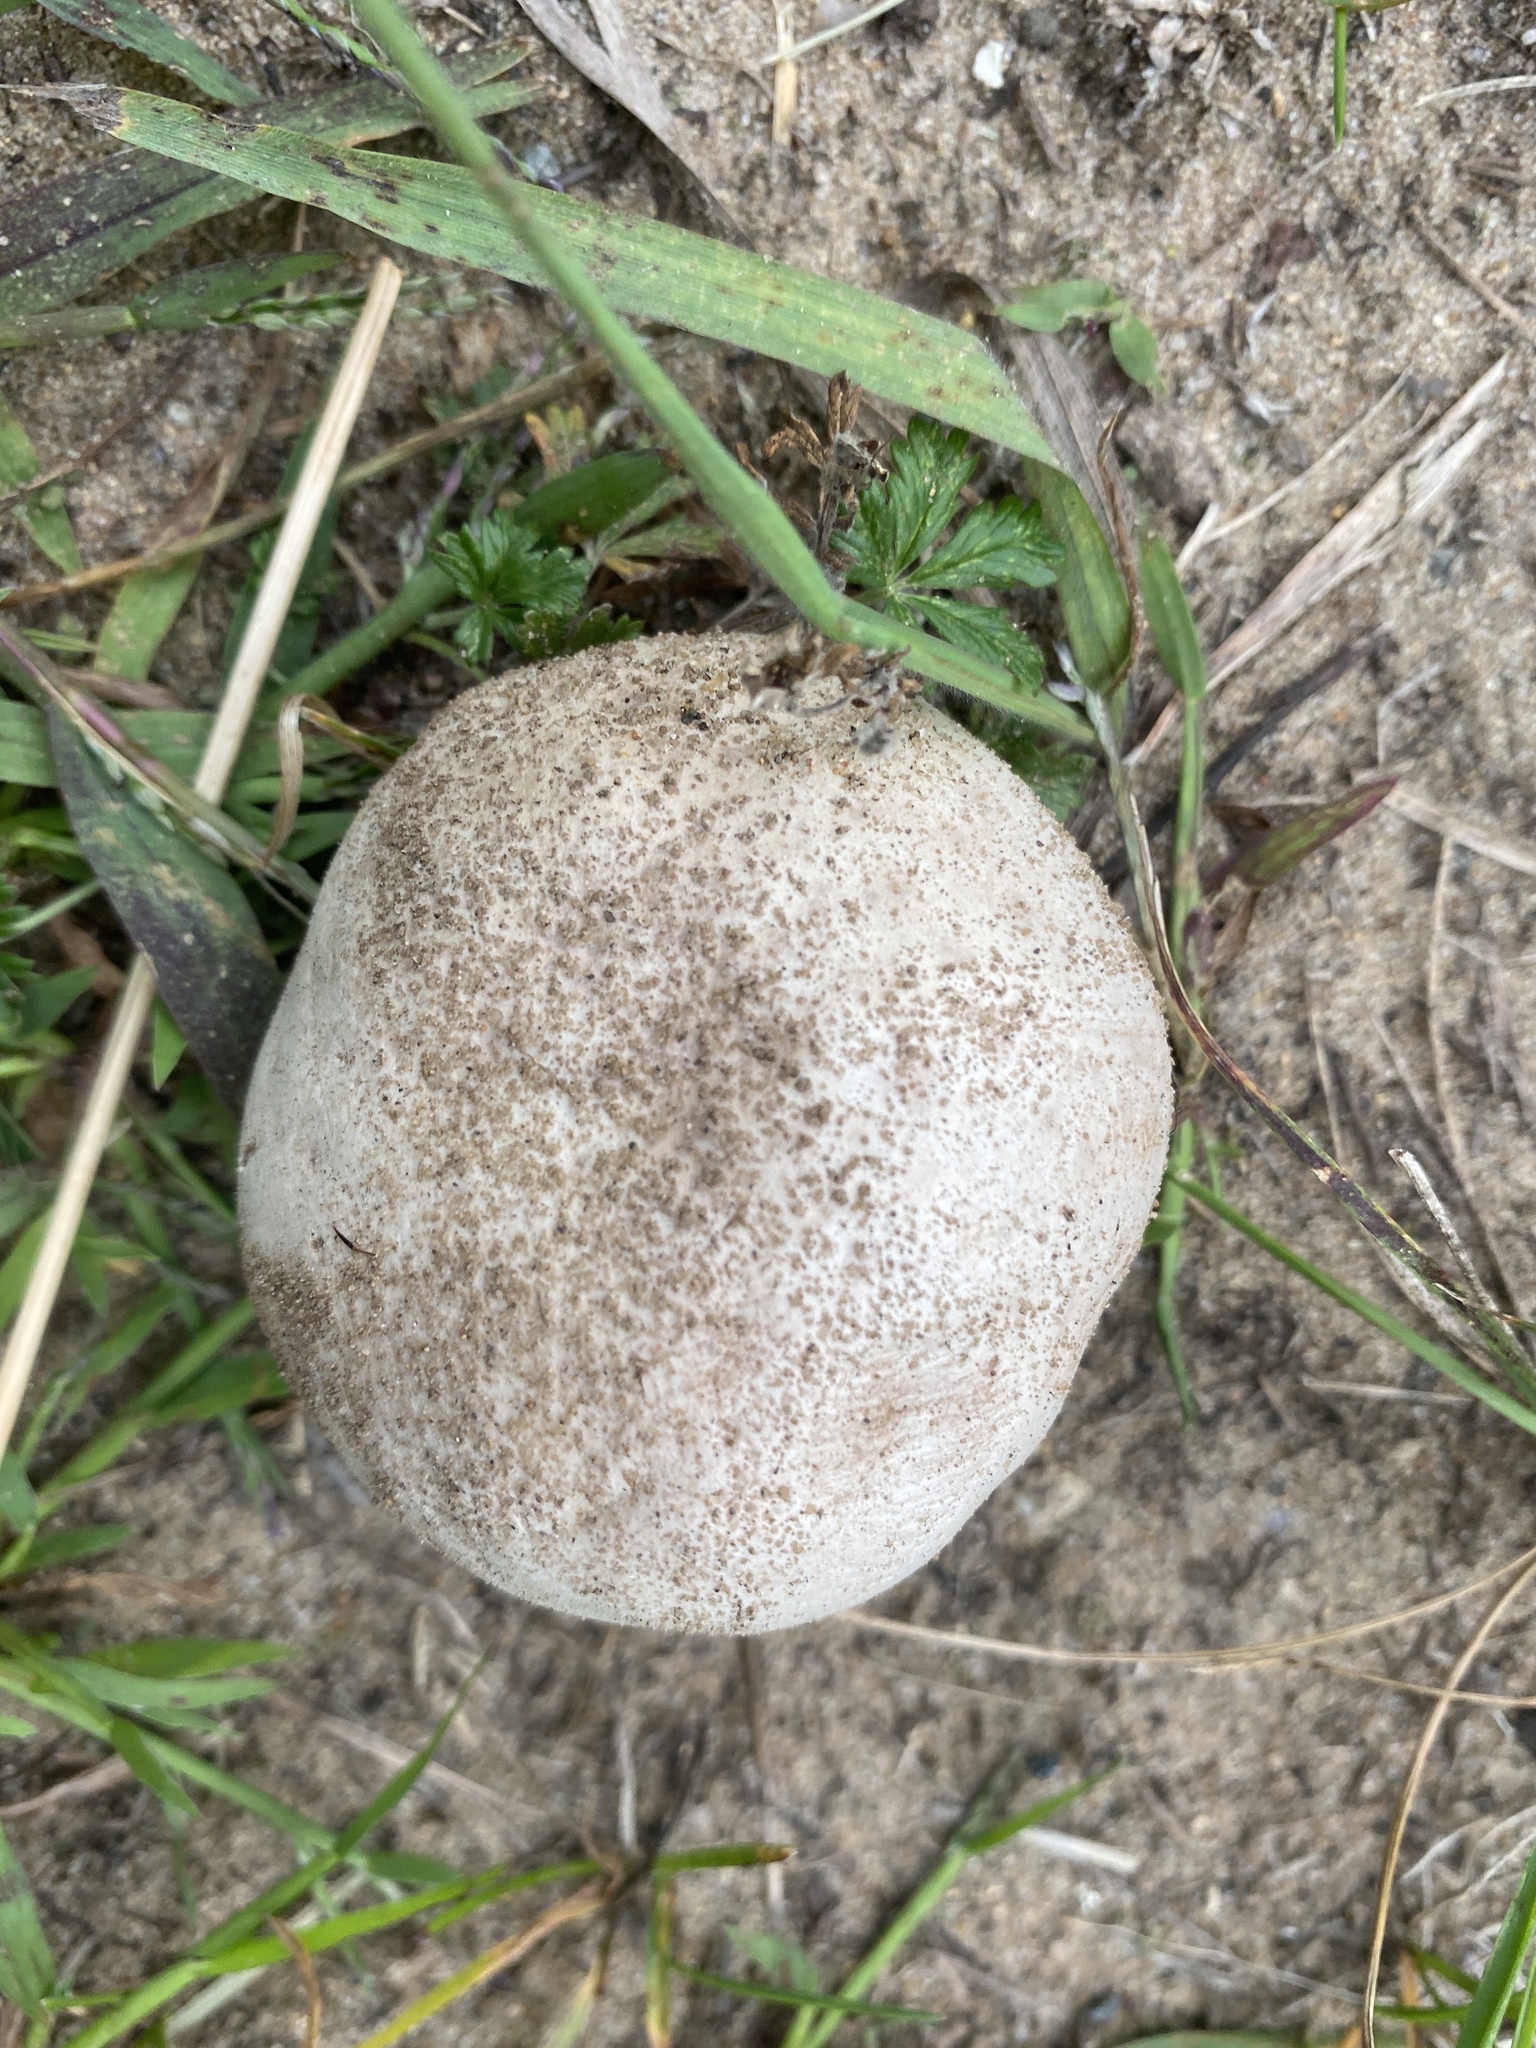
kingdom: Fungi
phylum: Basidiomycota
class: Agaricomycetes
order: Agaricales
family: Lycoperdaceae
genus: Lycoperdon
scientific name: Lycoperdon pratense
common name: Meadow puffball
